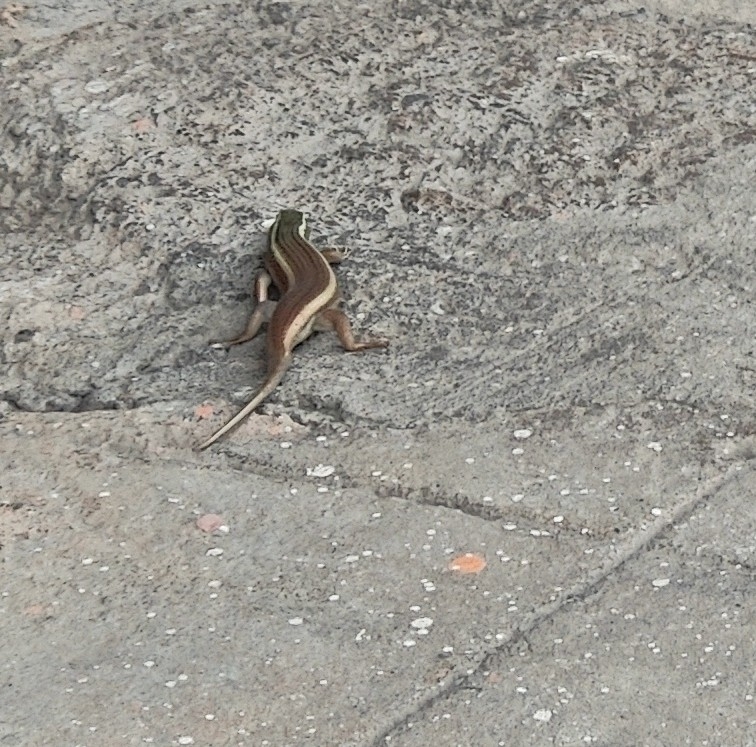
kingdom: Animalia
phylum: Chordata
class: Squamata
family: Scincidae
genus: Eutropis
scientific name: Eutropis carinata
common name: Keeled indian mabuya
